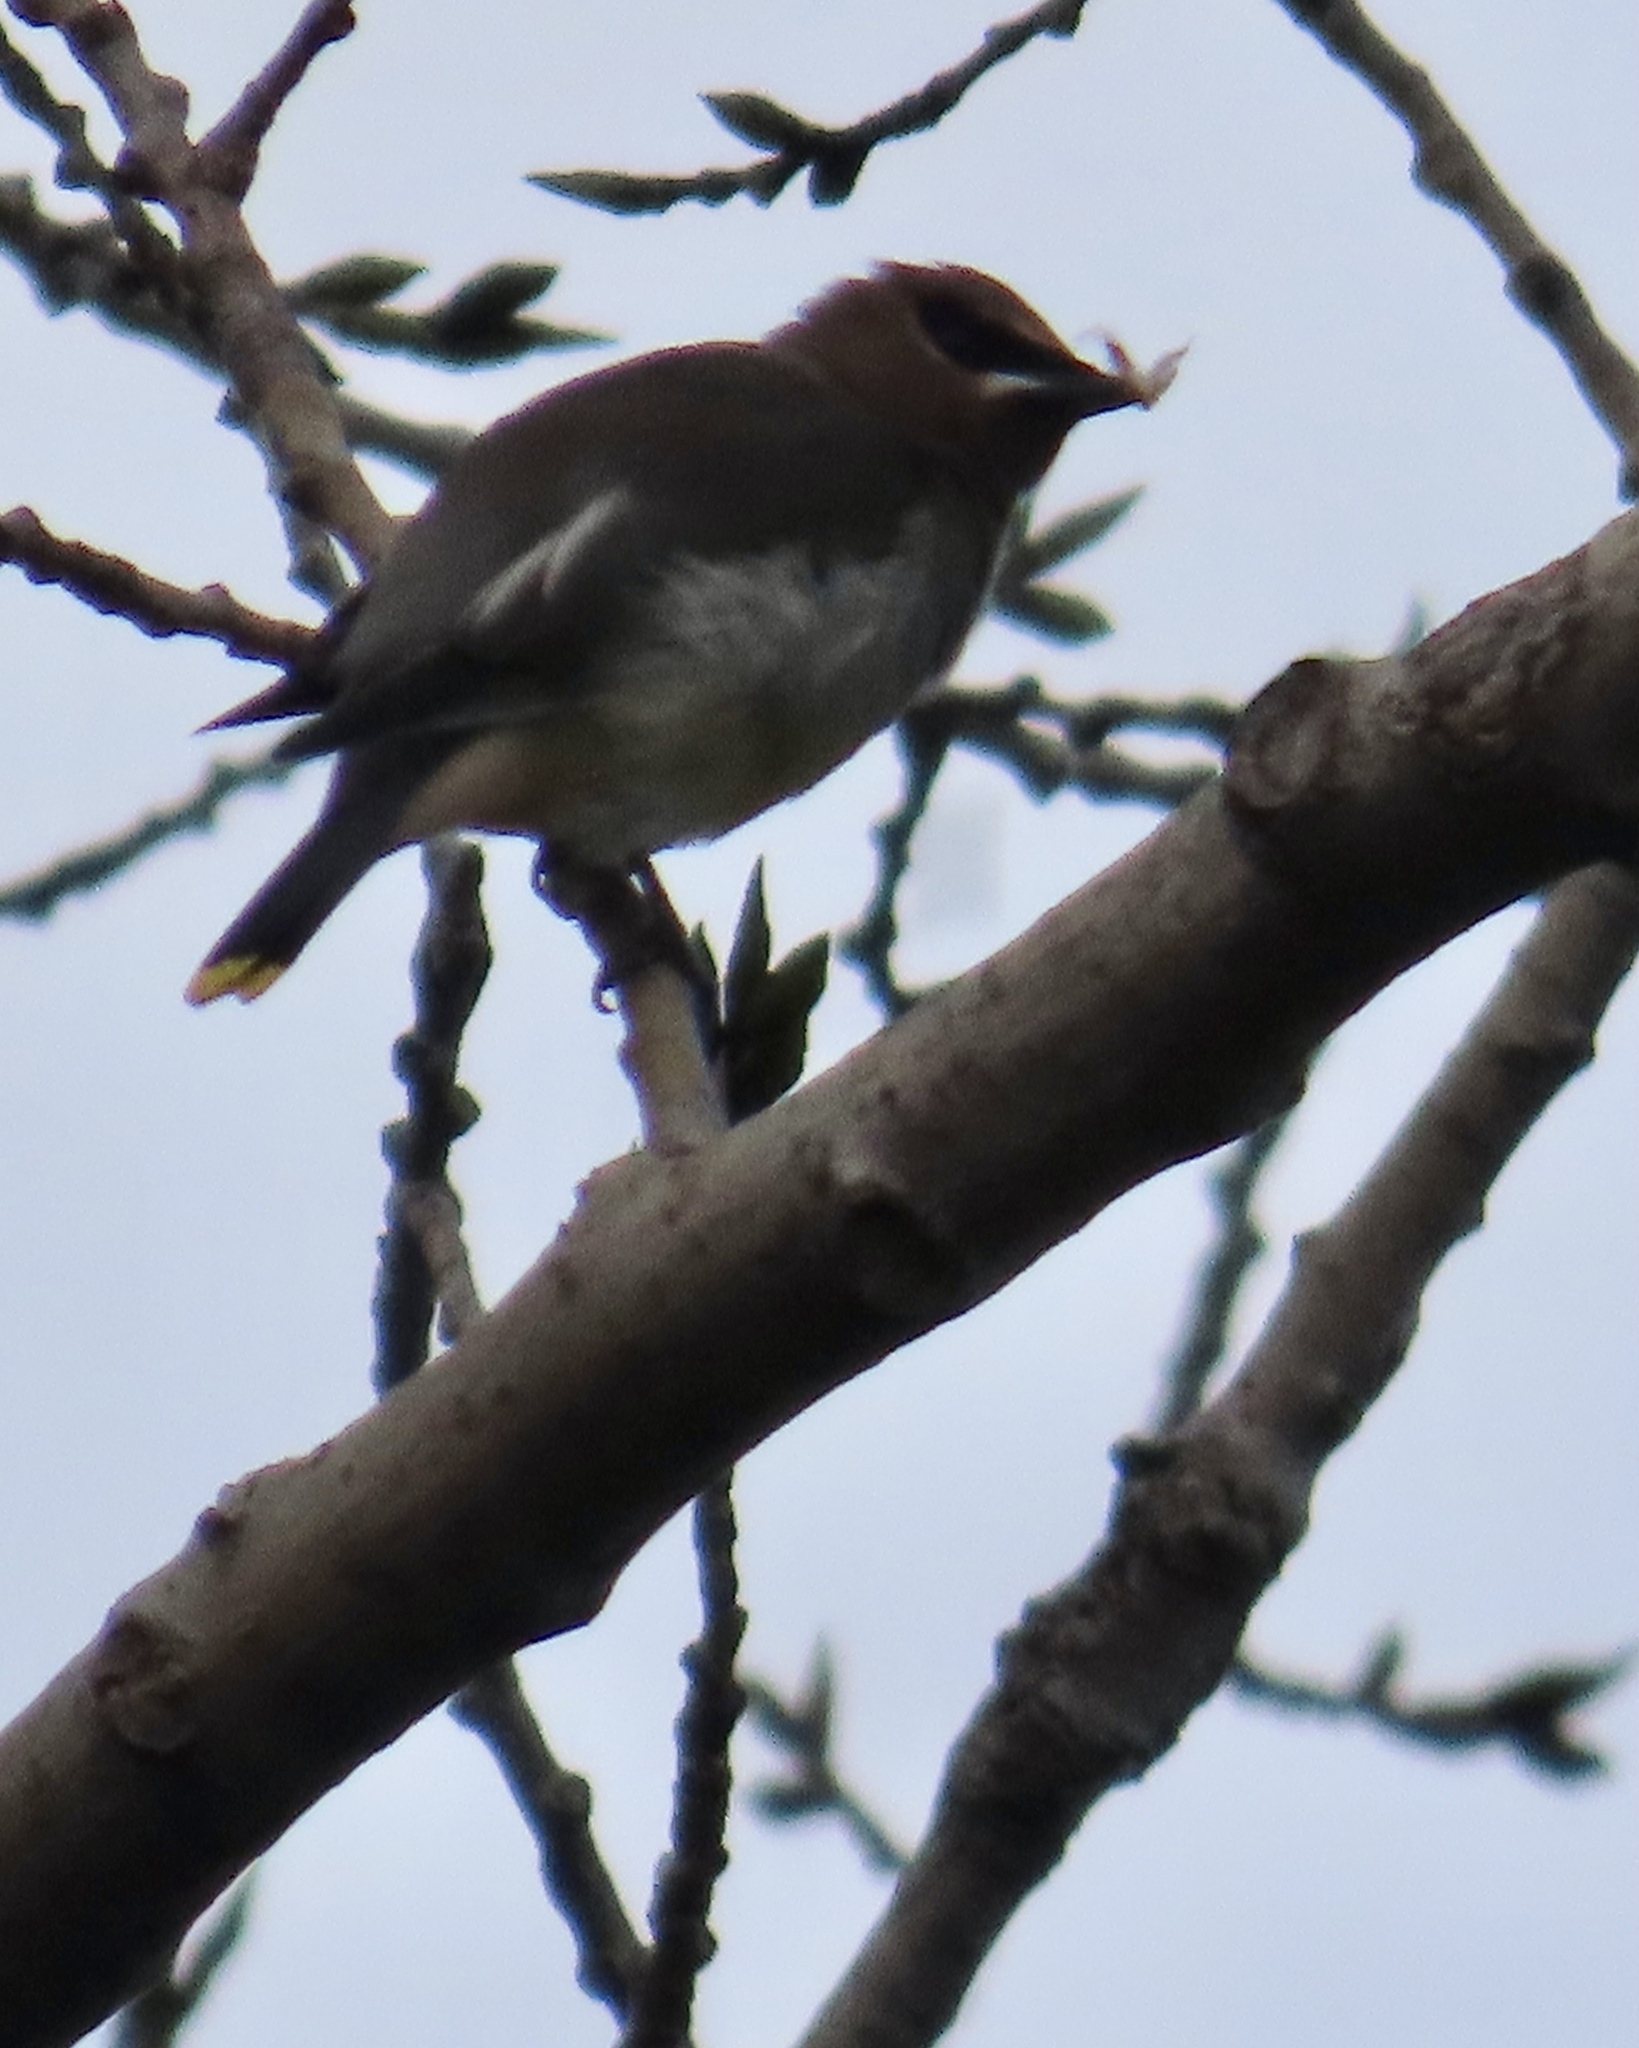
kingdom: Animalia
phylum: Chordata
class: Aves
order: Passeriformes
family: Bombycillidae
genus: Bombycilla
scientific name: Bombycilla cedrorum
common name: Cedar waxwing
